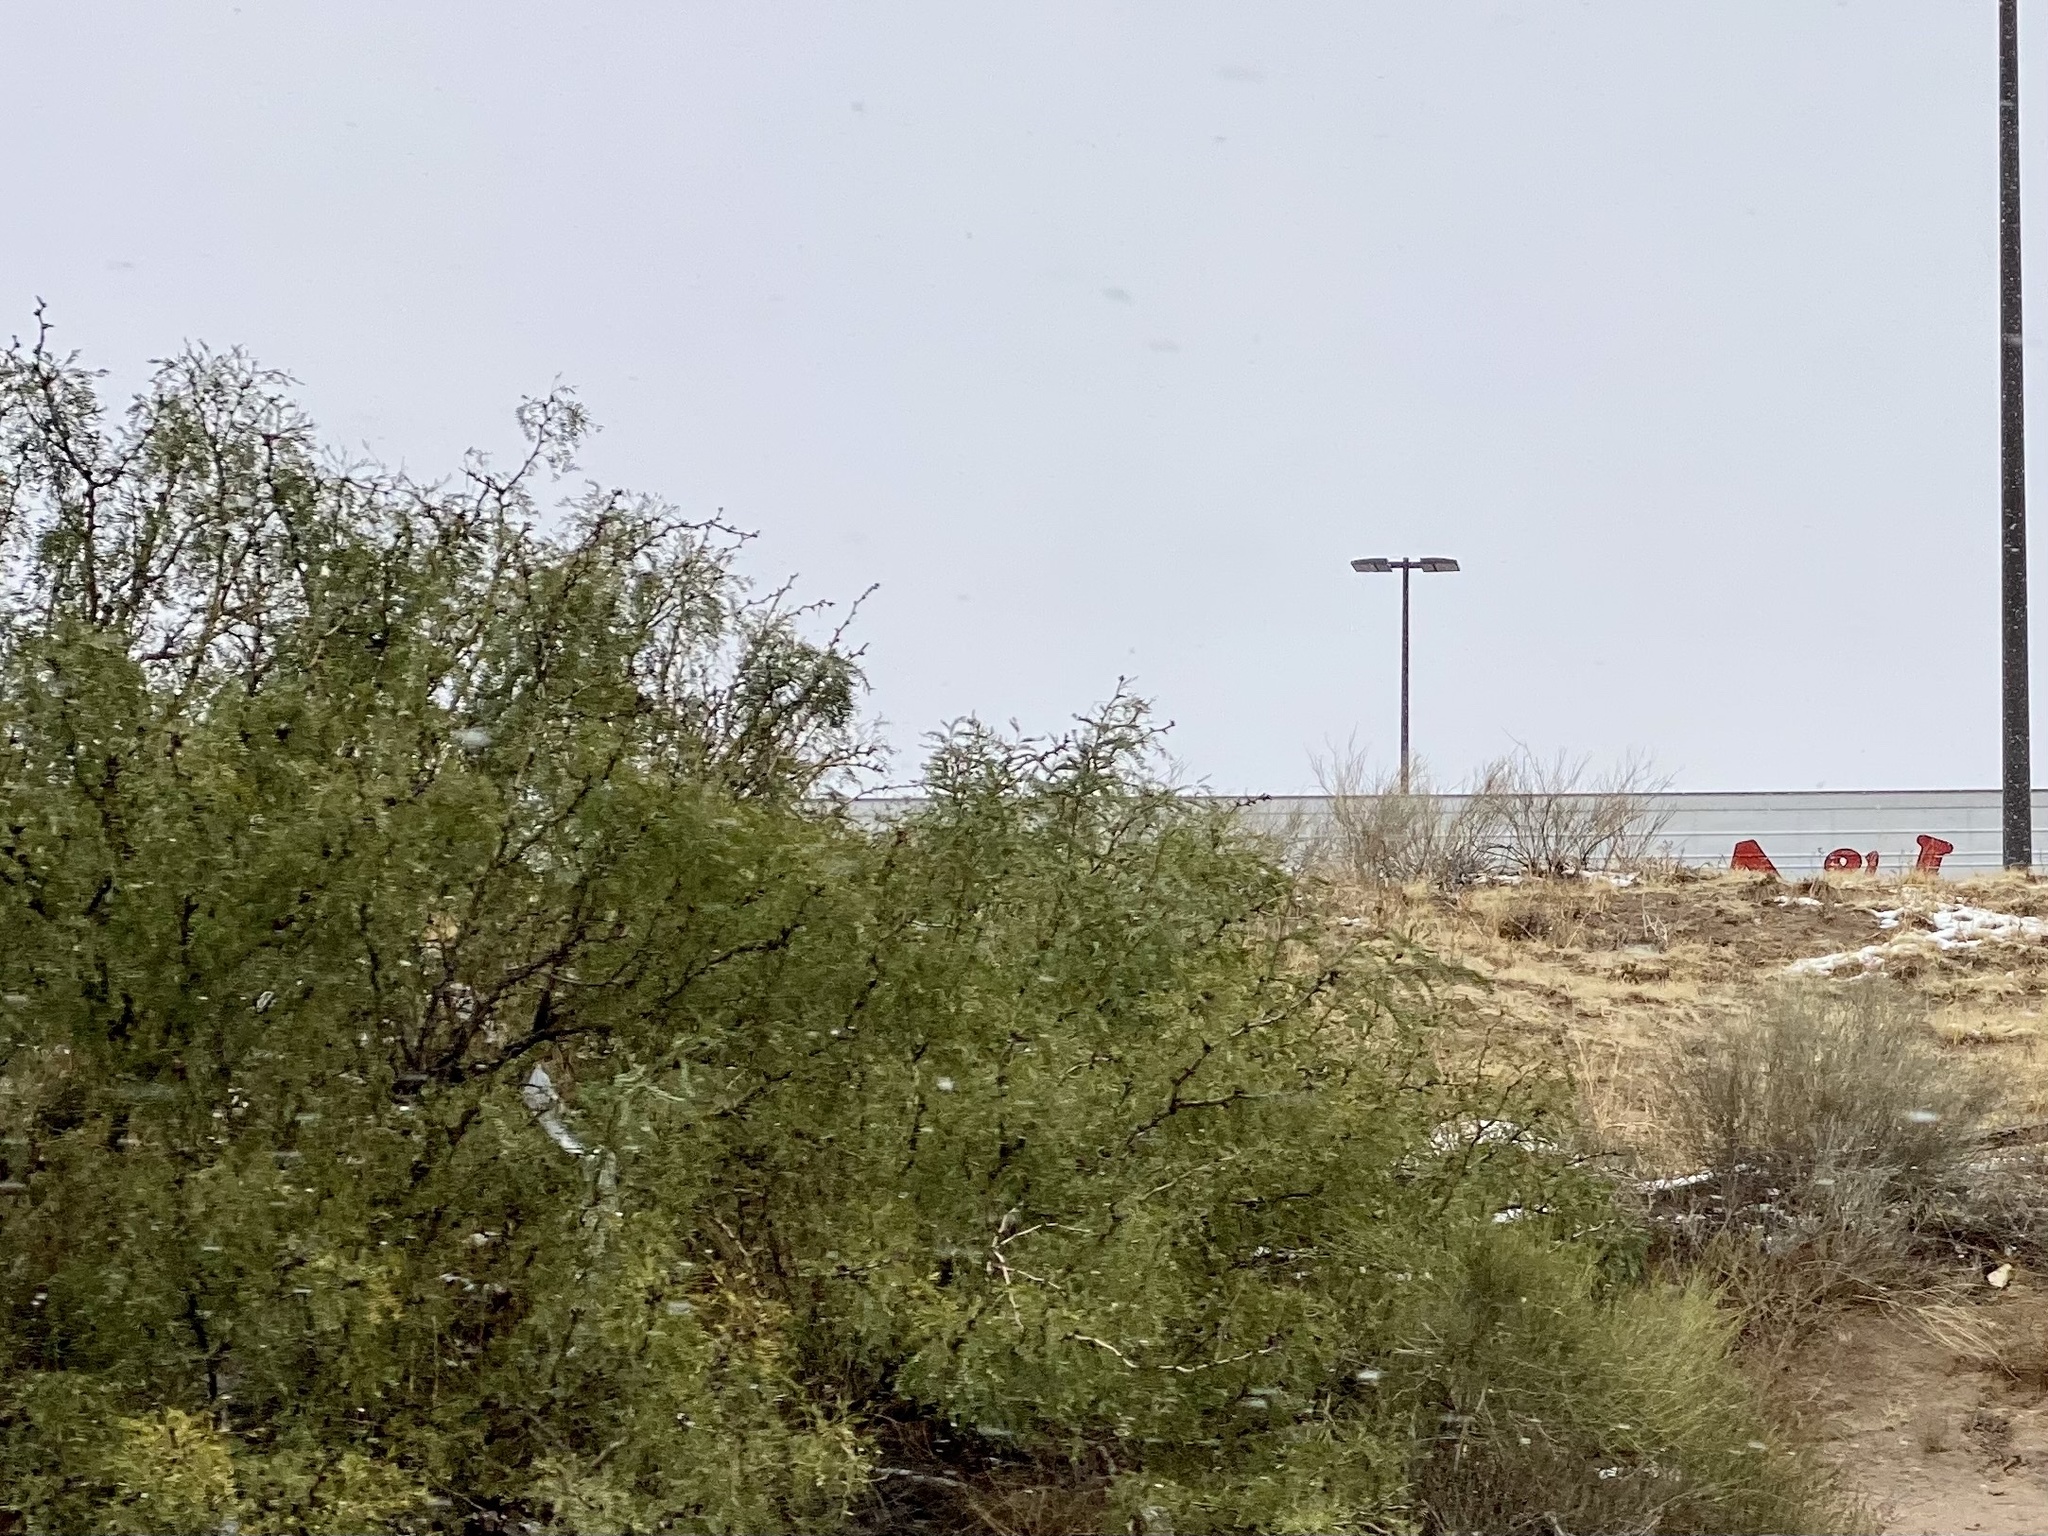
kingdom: Plantae
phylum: Tracheophyta
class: Magnoliopsida
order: Fabales
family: Fabaceae
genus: Prosopis
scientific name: Prosopis glandulosa
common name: Honey mesquite
